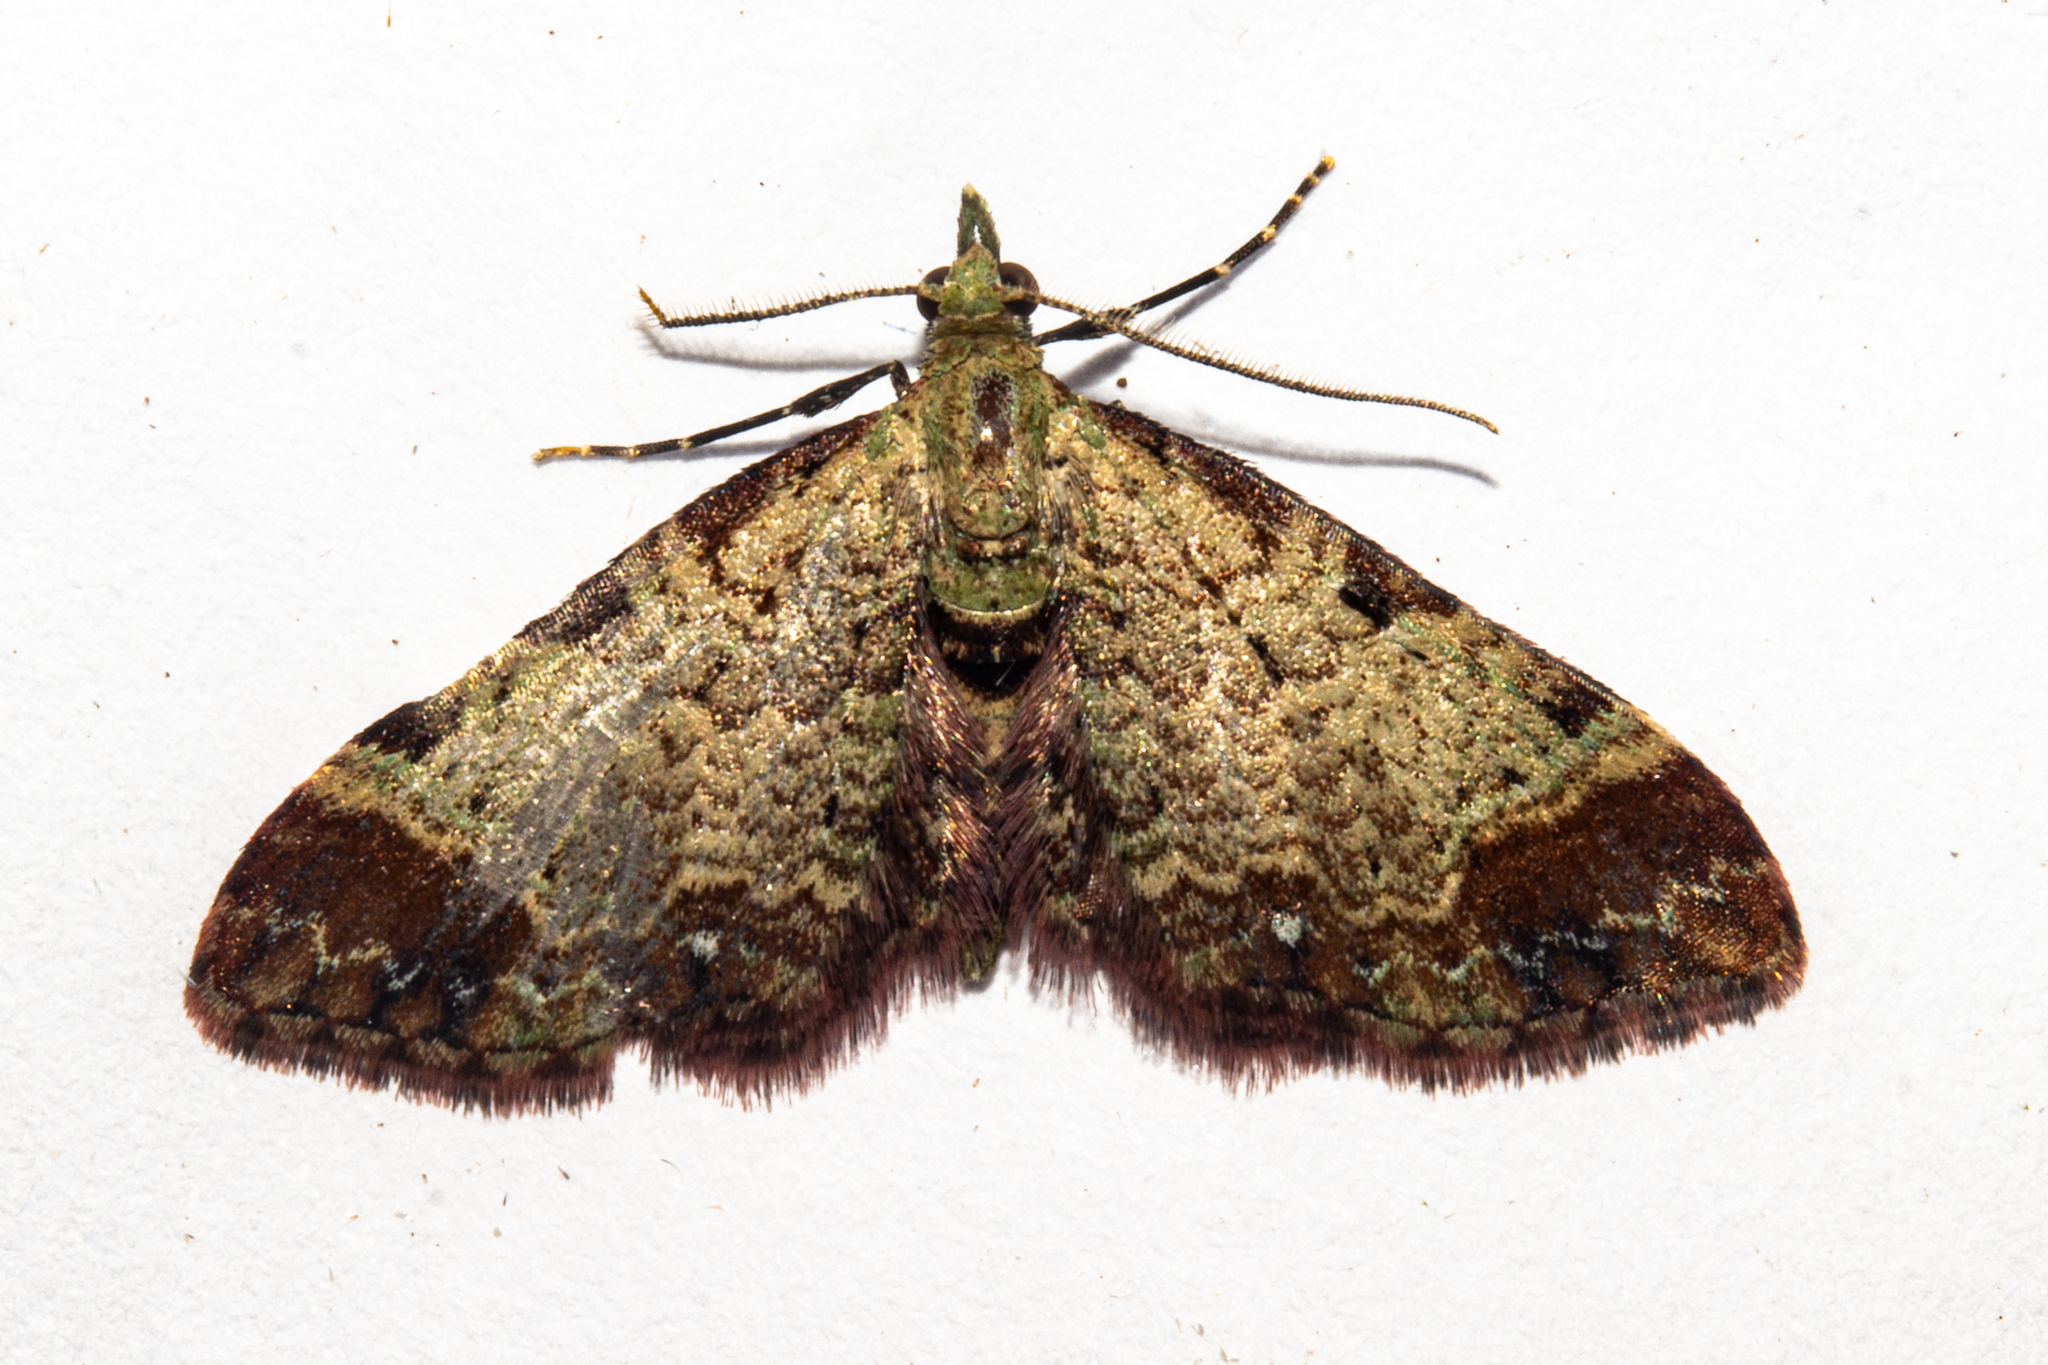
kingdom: Animalia
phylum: Arthropoda
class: Insecta
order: Lepidoptera
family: Geometridae
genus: Pasiphila
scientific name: Pasiphila magnimaculata
